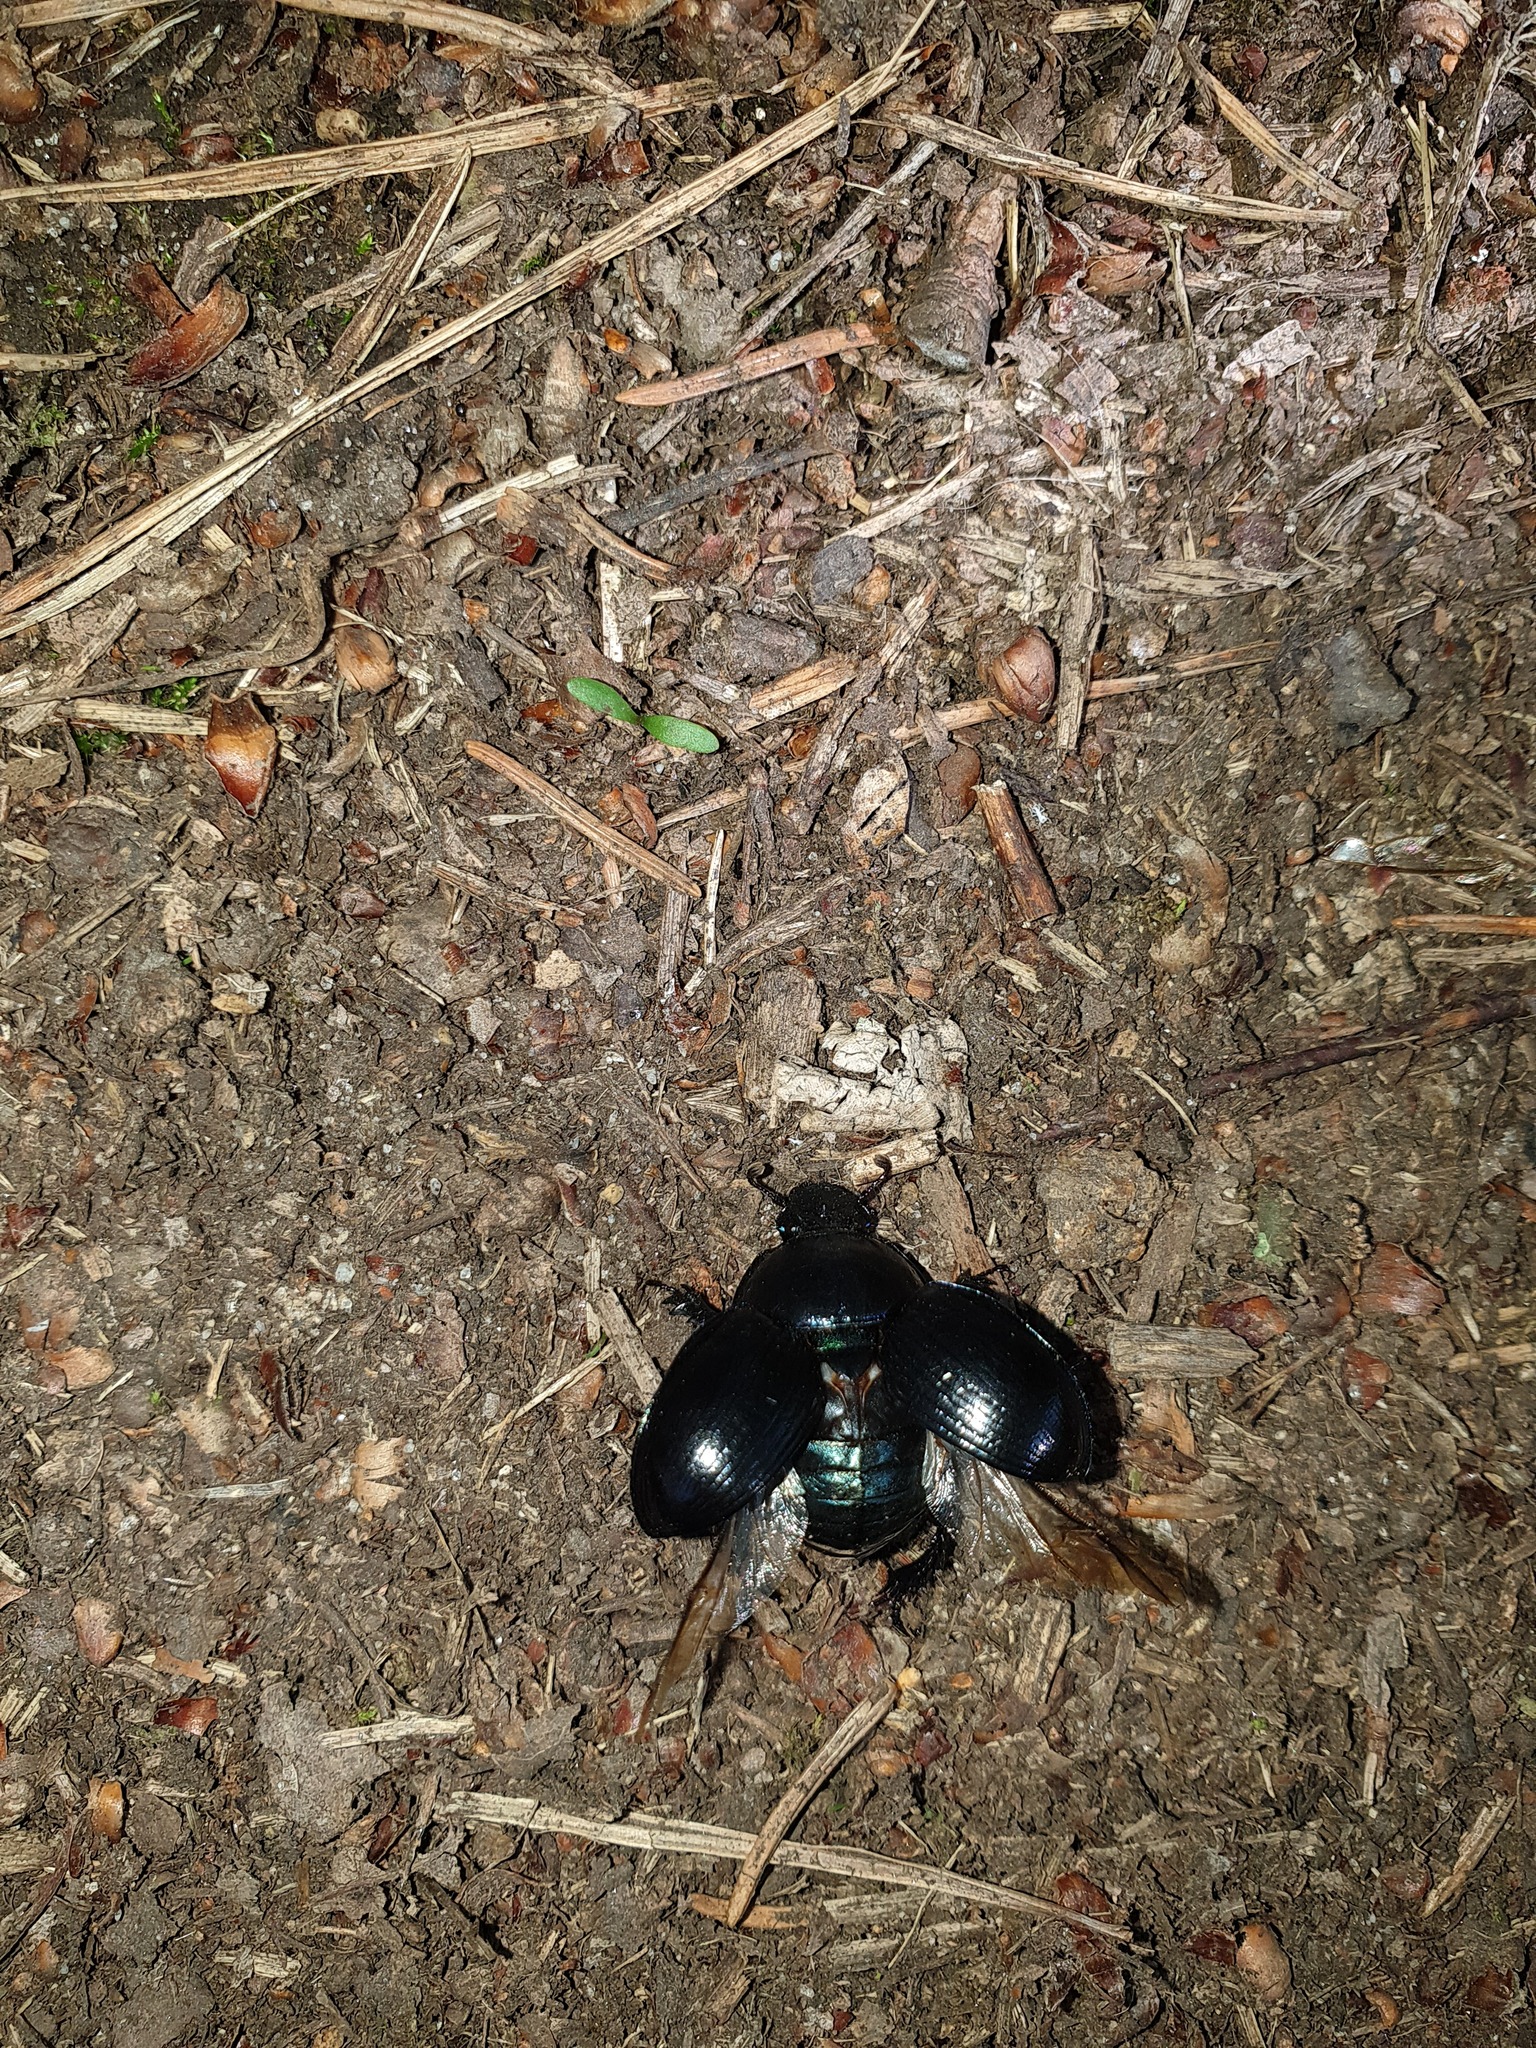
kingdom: Animalia
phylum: Arthropoda
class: Insecta
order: Coleoptera
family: Geotrupidae
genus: Anoplotrupes
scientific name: Anoplotrupes stercorosus
